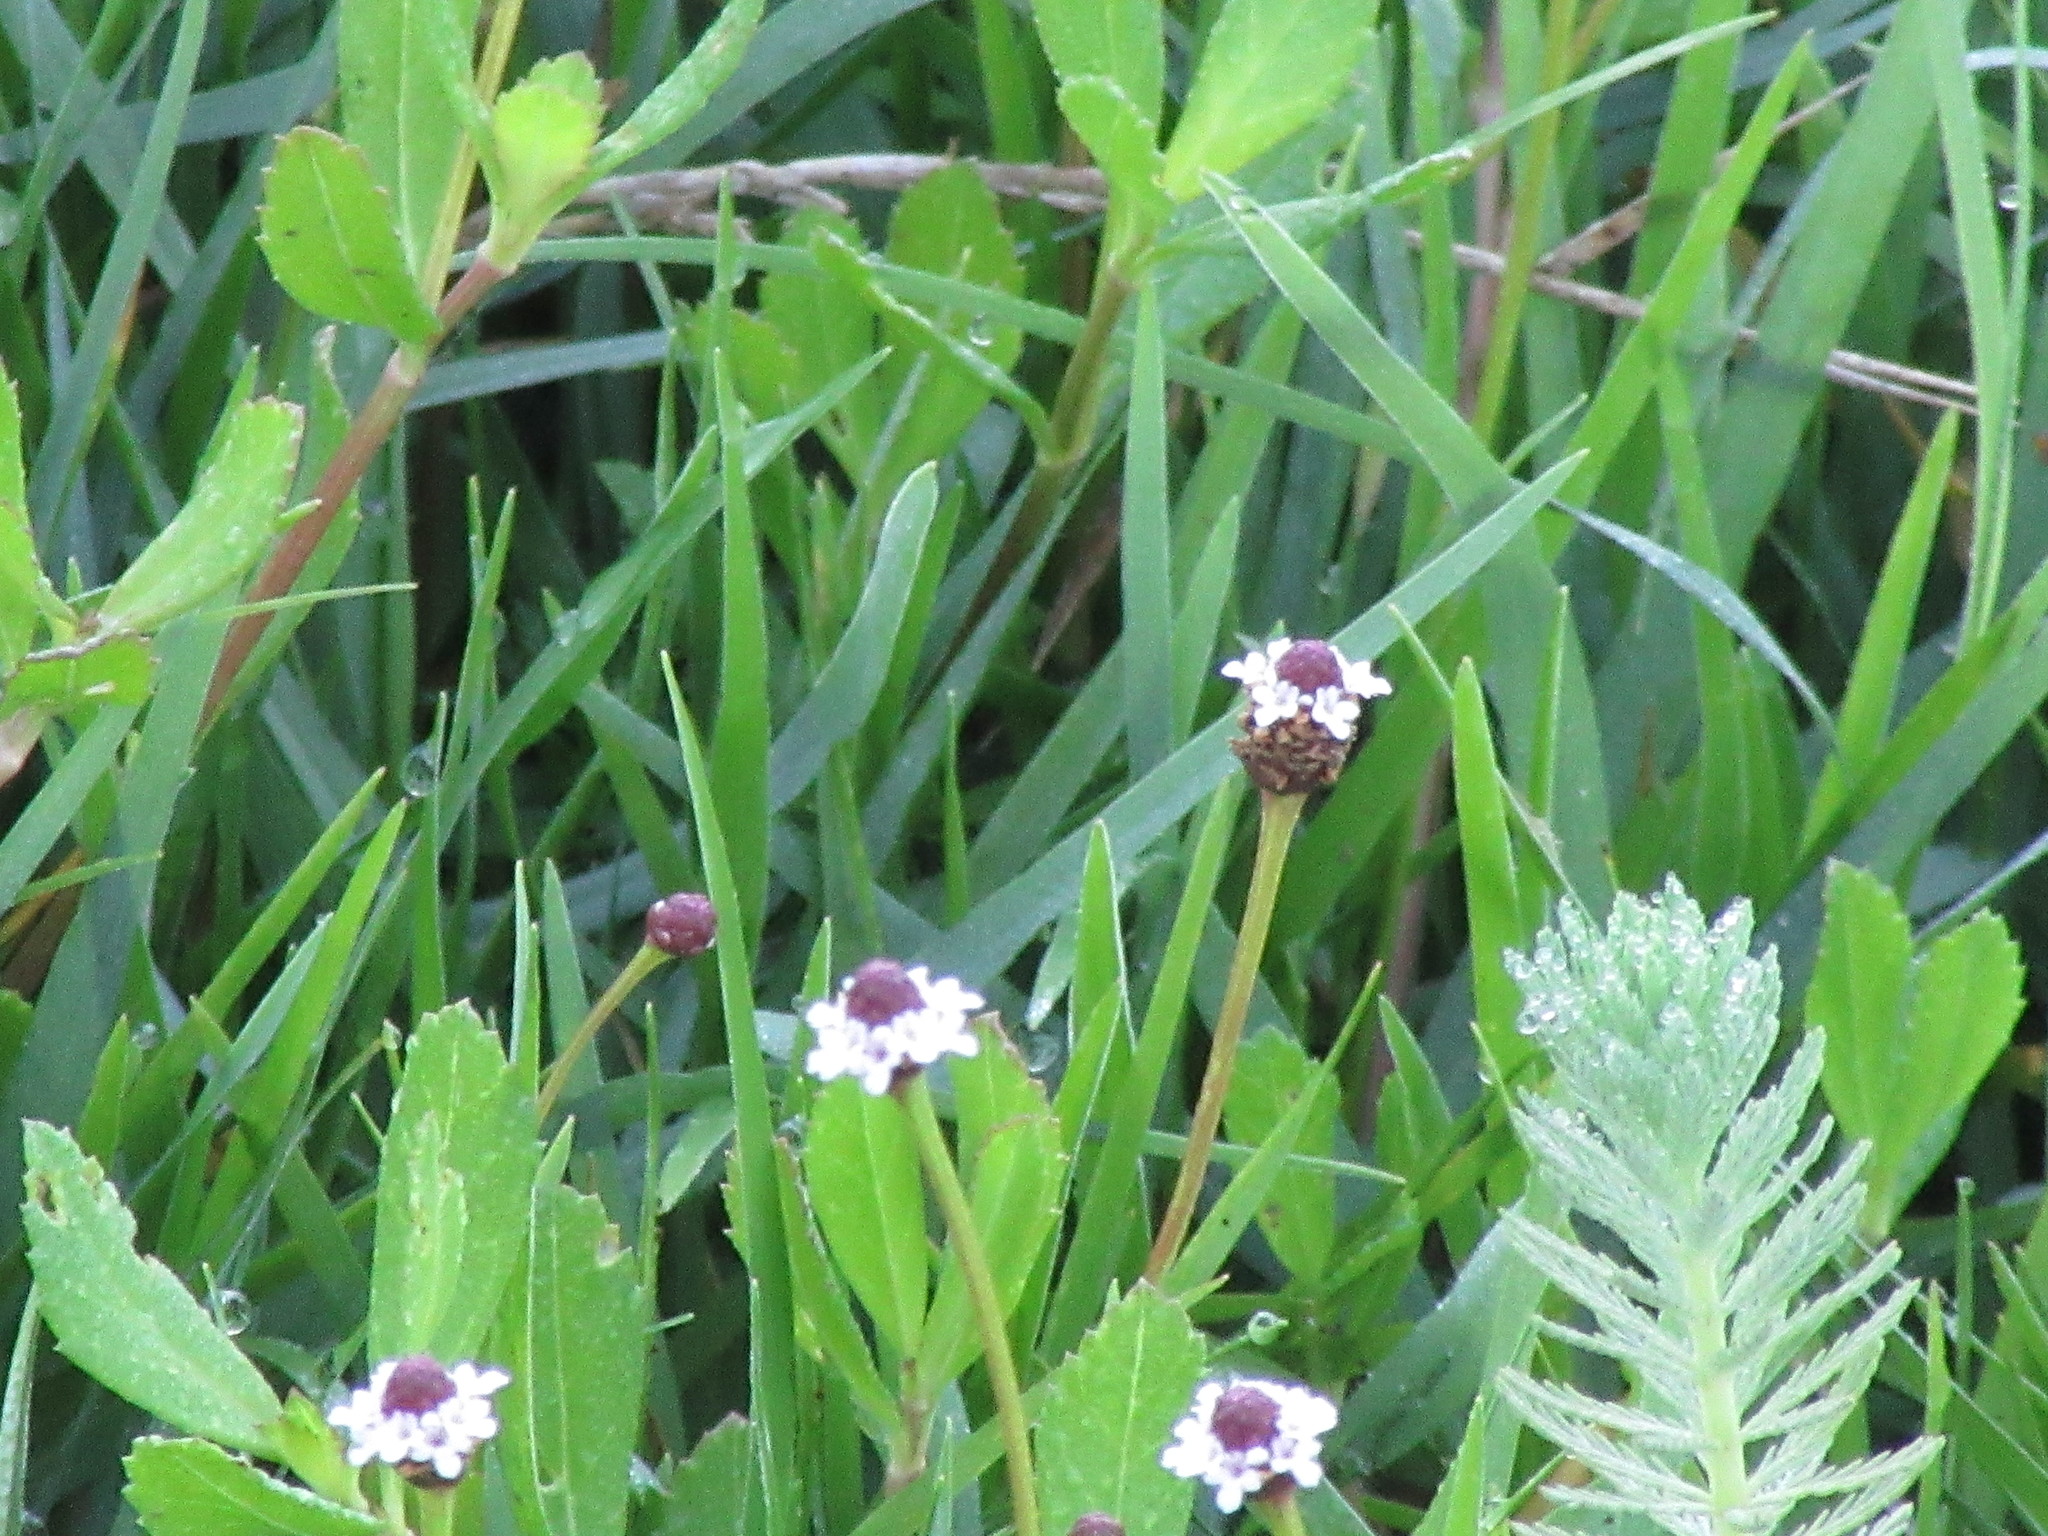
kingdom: Plantae
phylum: Tracheophyta
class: Magnoliopsida
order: Lamiales
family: Verbenaceae
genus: Phyla
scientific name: Phyla nodiflora
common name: Frogfruit
